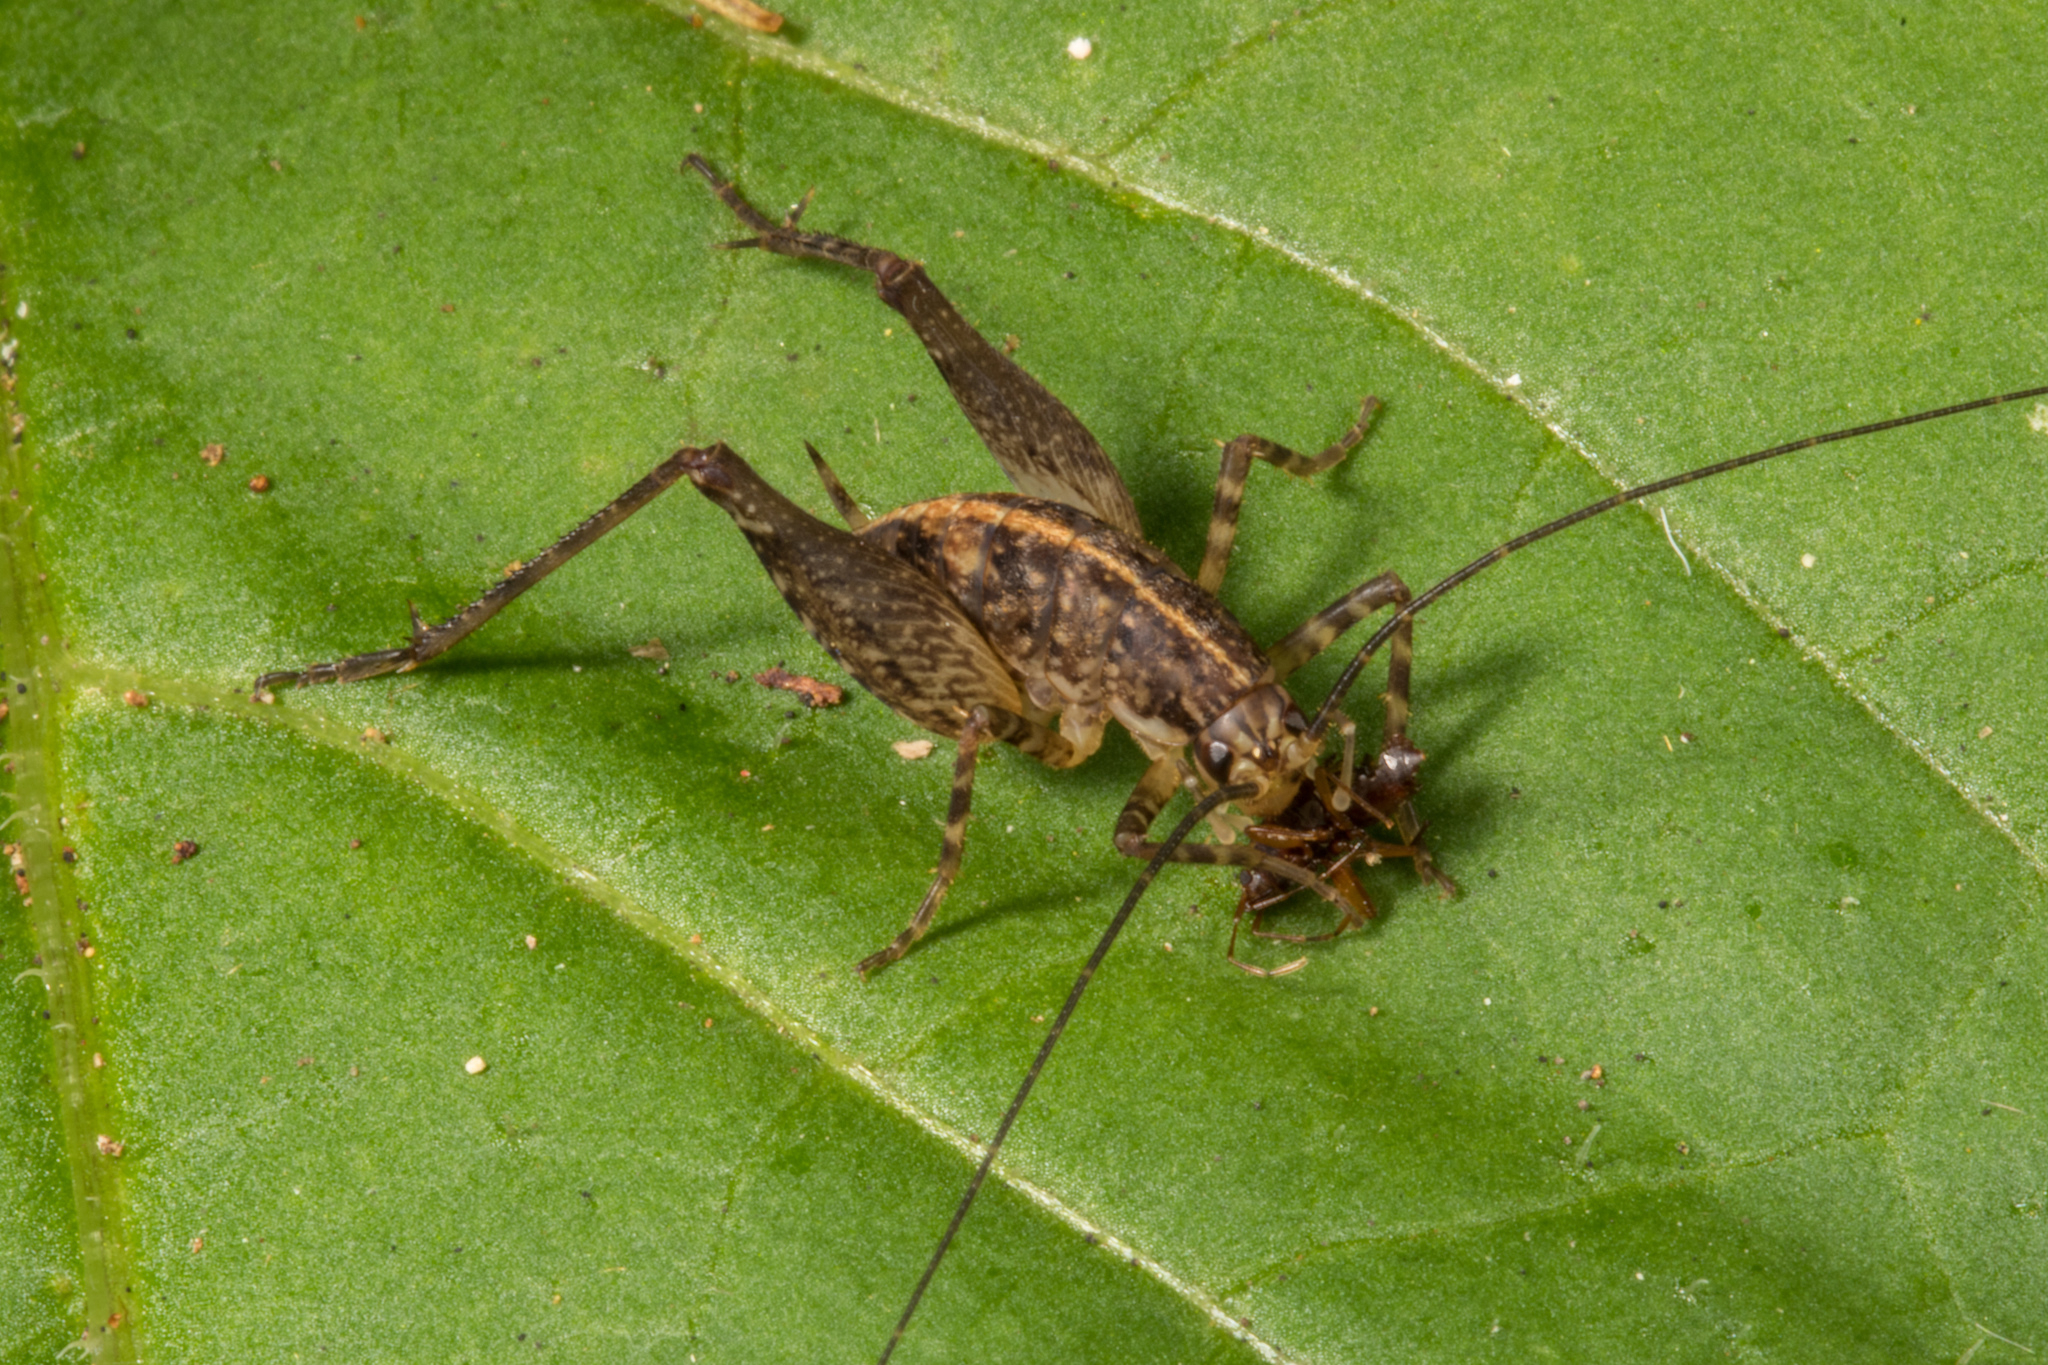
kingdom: Animalia
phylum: Arthropoda
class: Insecta
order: Orthoptera
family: Rhaphidophoridae
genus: Pleioplectron
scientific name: Pleioplectron hudsoni
